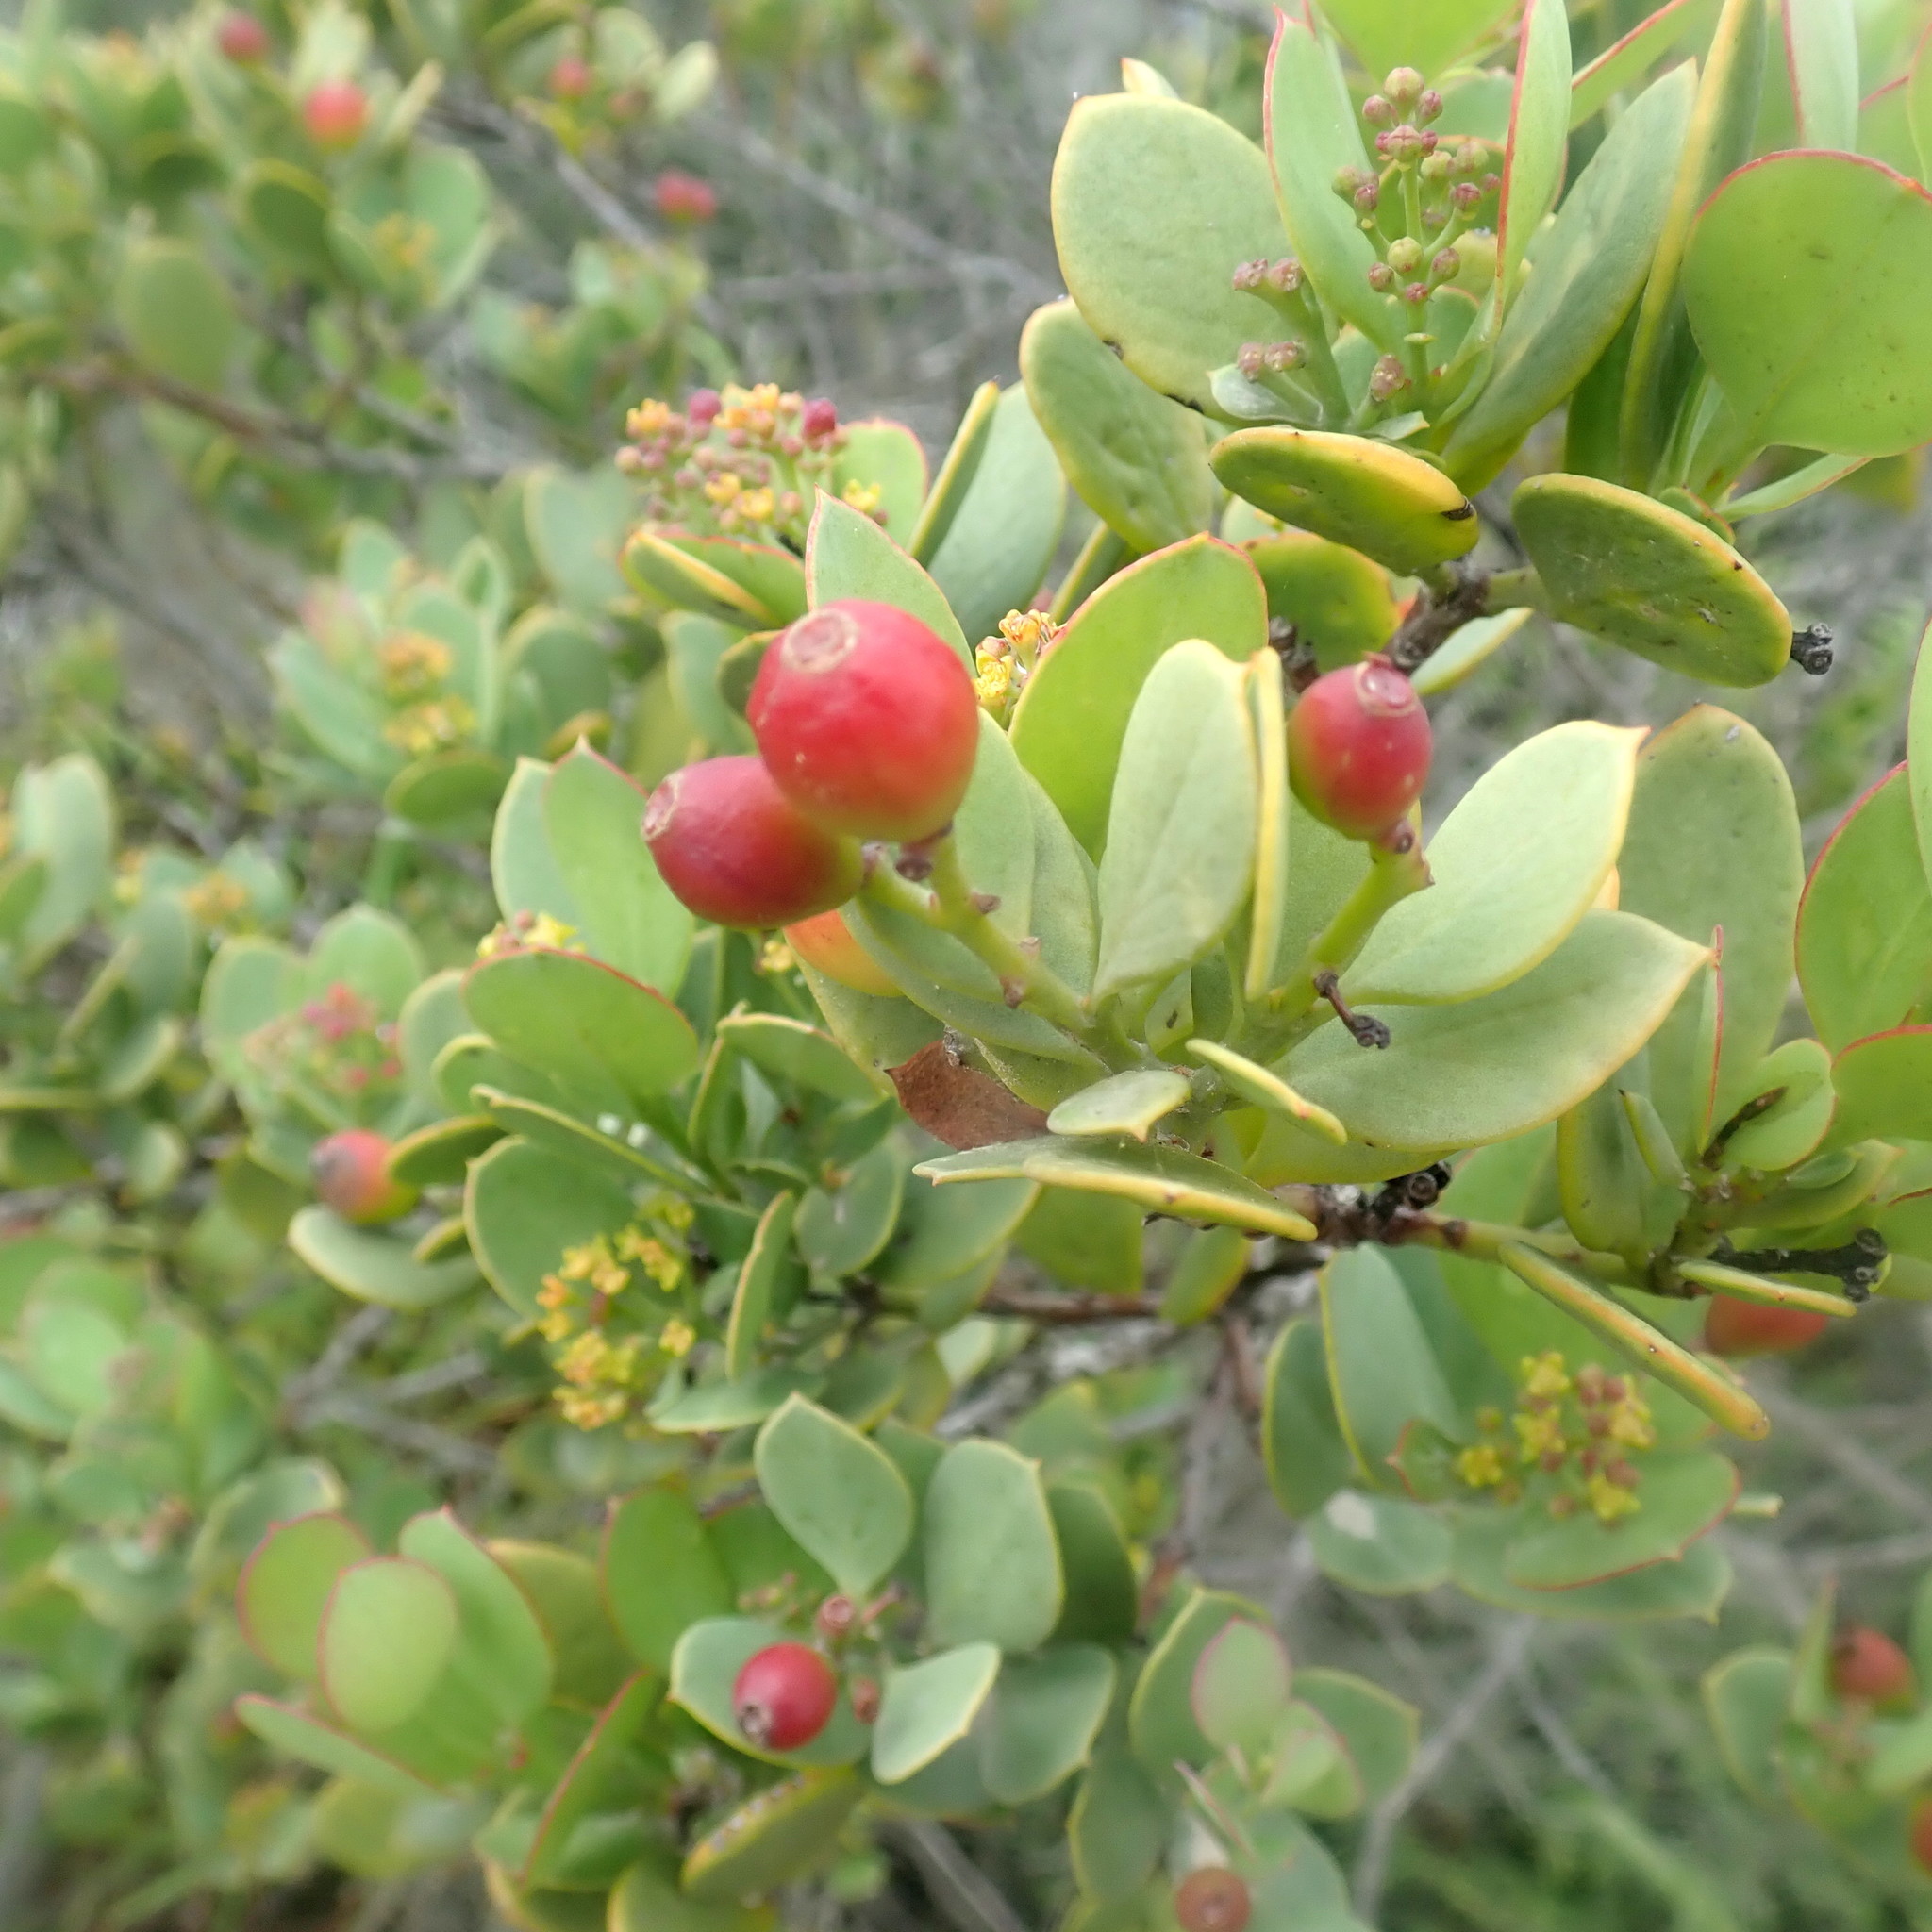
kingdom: Plantae
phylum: Tracheophyta
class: Magnoliopsida
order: Santalales
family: Santalaceae
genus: Osyris
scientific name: Osyris compressa
